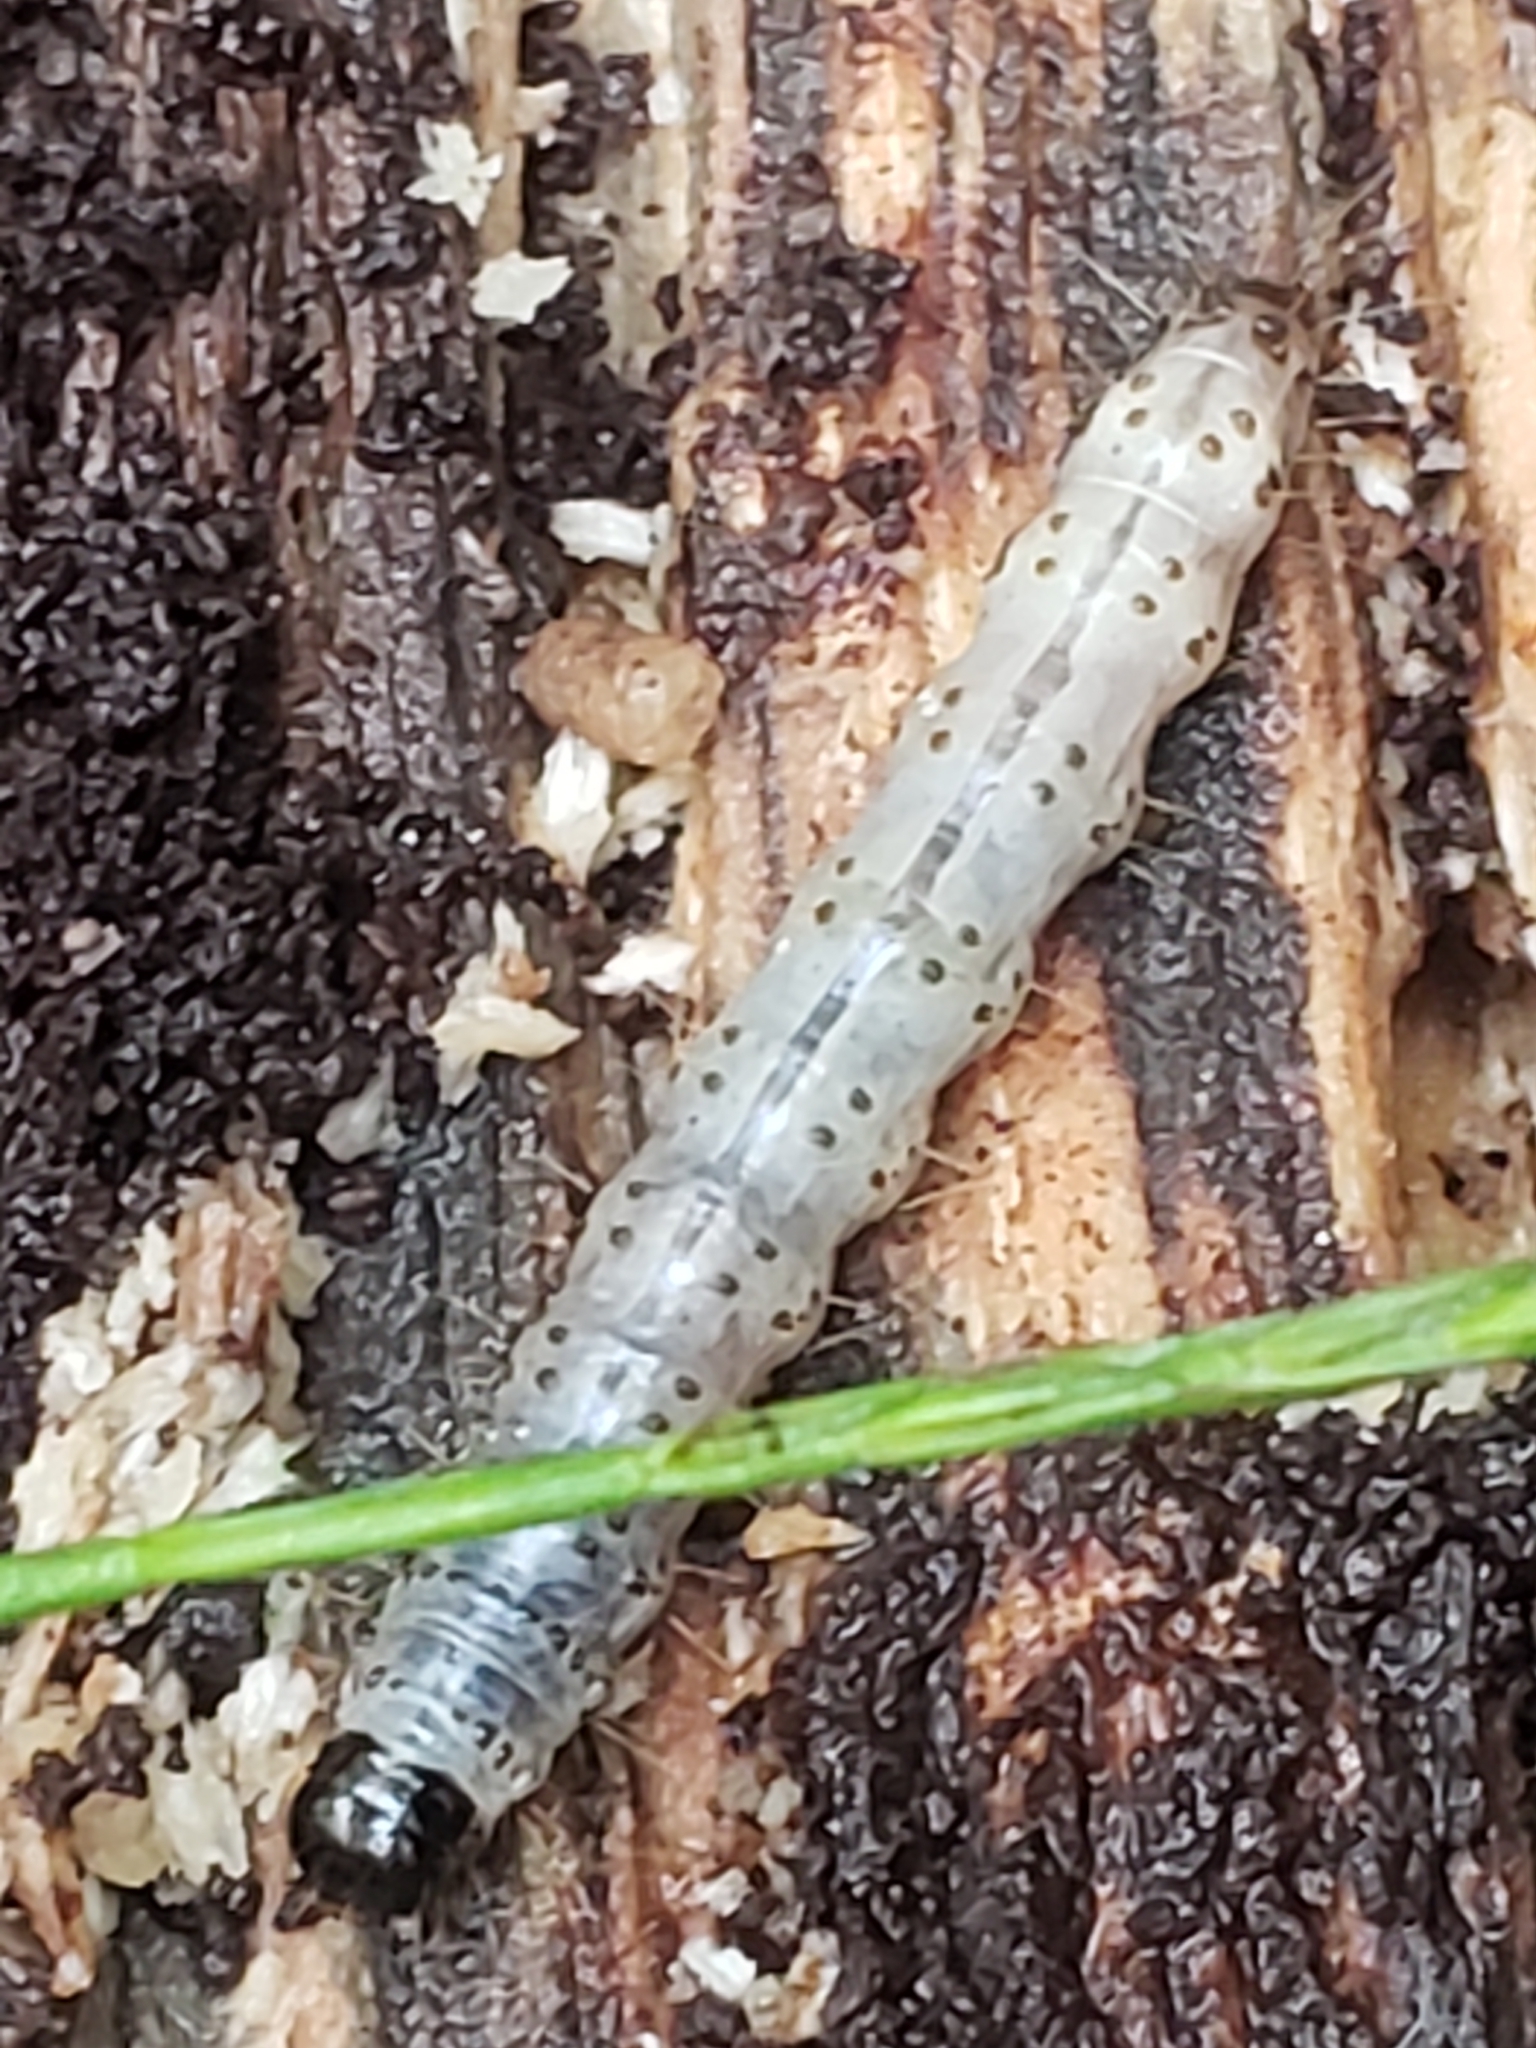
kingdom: Animalia
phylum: Arthropoda
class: Insecta
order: Lepidoptera
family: Erebidae
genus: Scolecocampa
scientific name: Scolecocampa liburna
